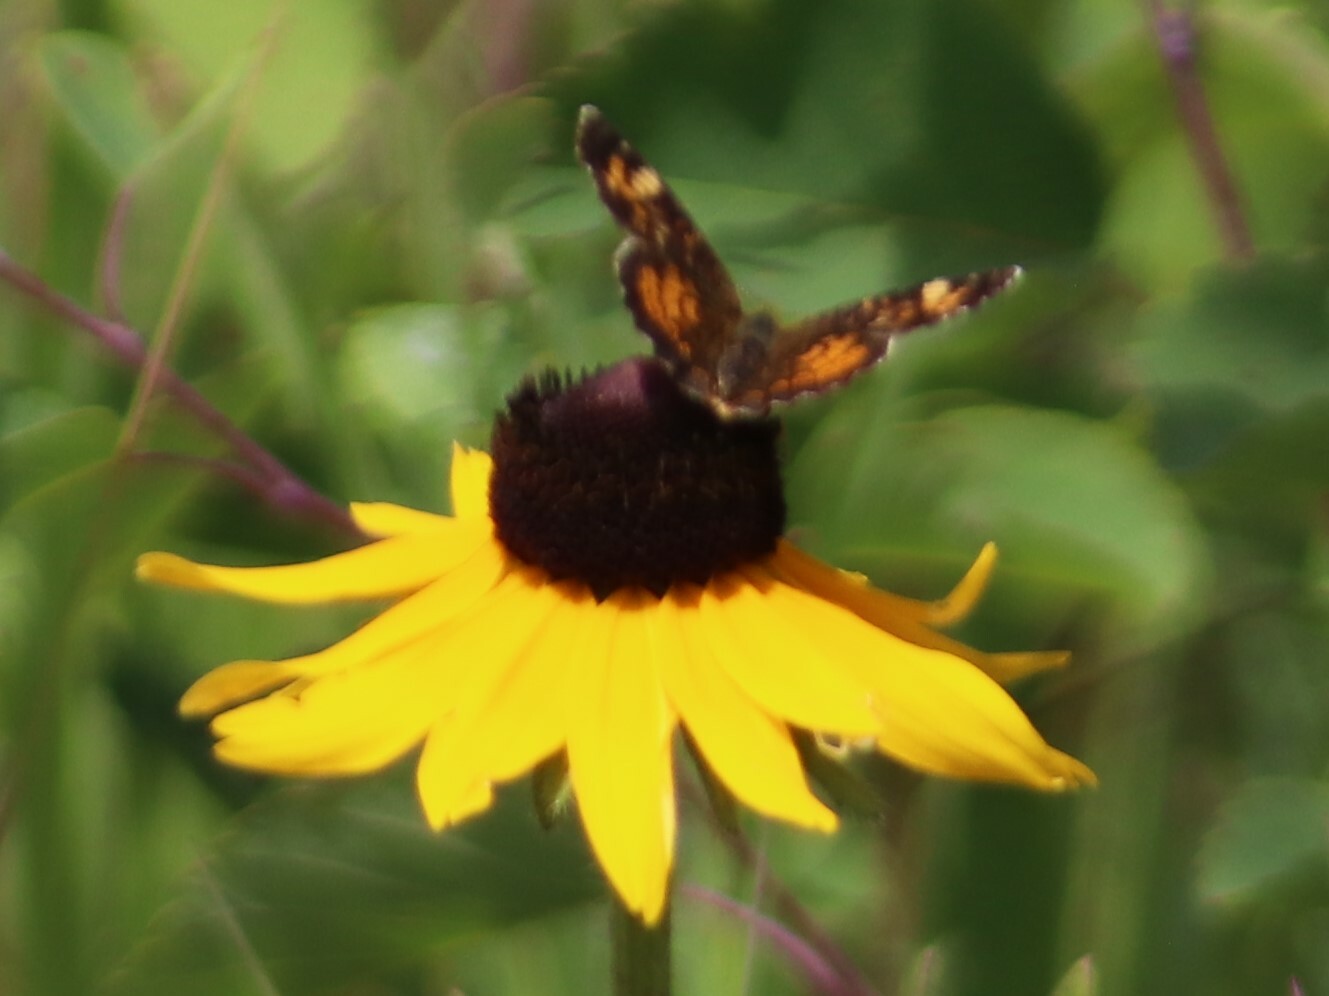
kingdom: Animalia
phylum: Arthropoda
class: Insecta
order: Lepidoptera
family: Nymphalidae
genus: Phyciodes
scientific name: Phyciodes batesii
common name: Tawny crescent
